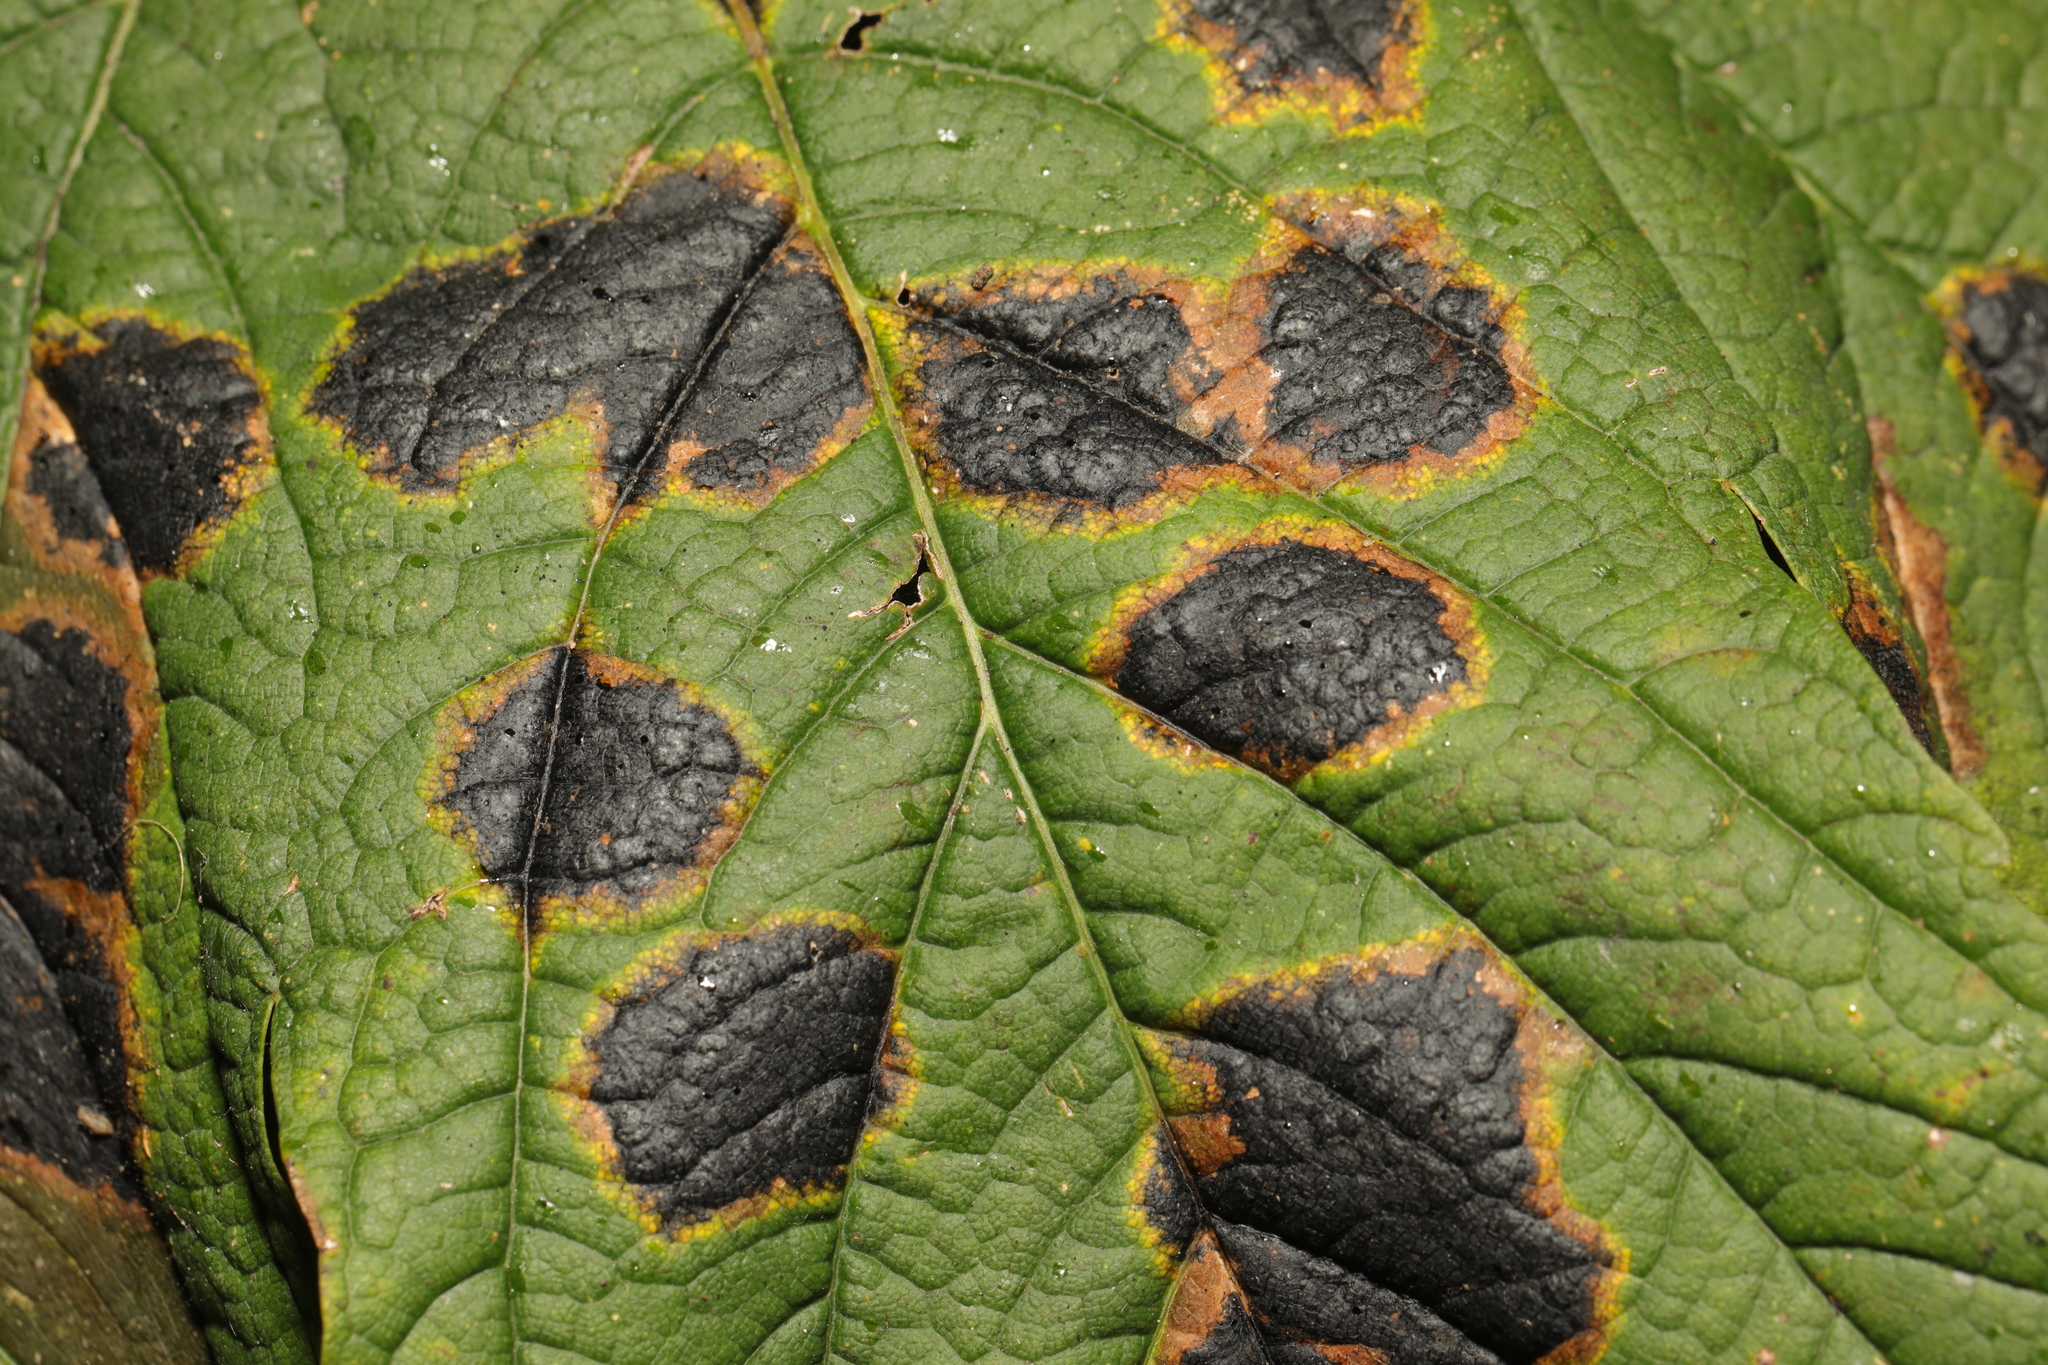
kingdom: Fungi
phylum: Ascomycota
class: Leotiomycetes
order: Rhytismatales
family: Rhytismataceae
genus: Rhytisma
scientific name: Rhytisma acerinum
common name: European tar spot
